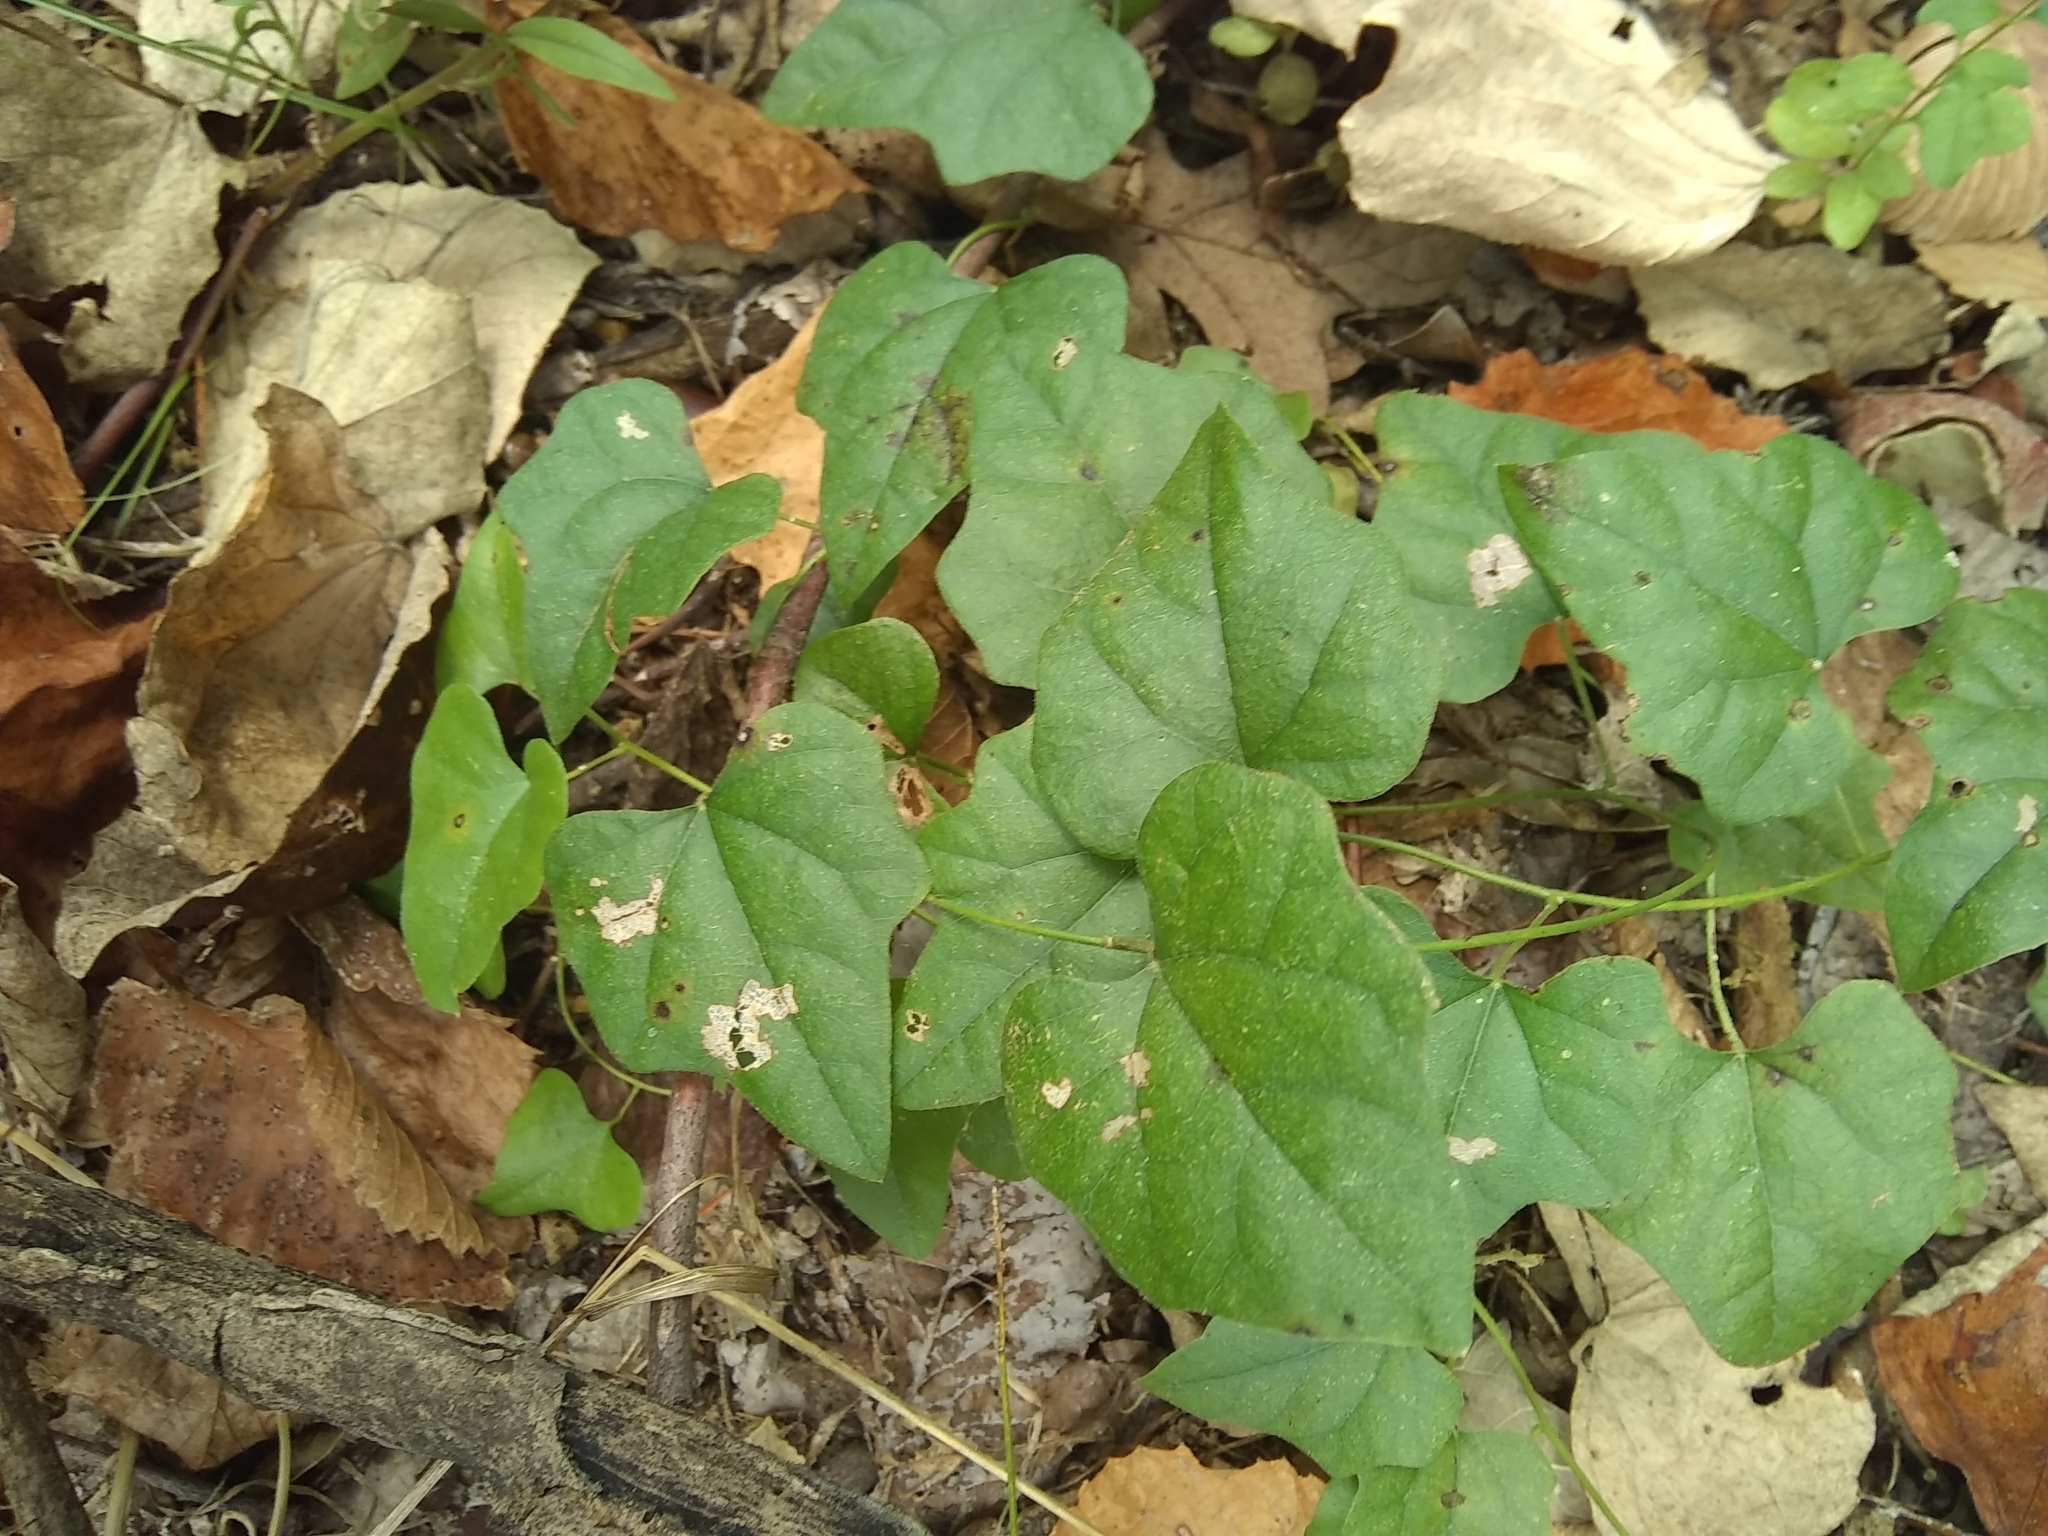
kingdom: Plantae
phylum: Tracheophyta
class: Magnoliopsida
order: Ranunculales
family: Menispermaceae
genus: Cocculus
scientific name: Cocculus carolinus
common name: Carolina moonseed
